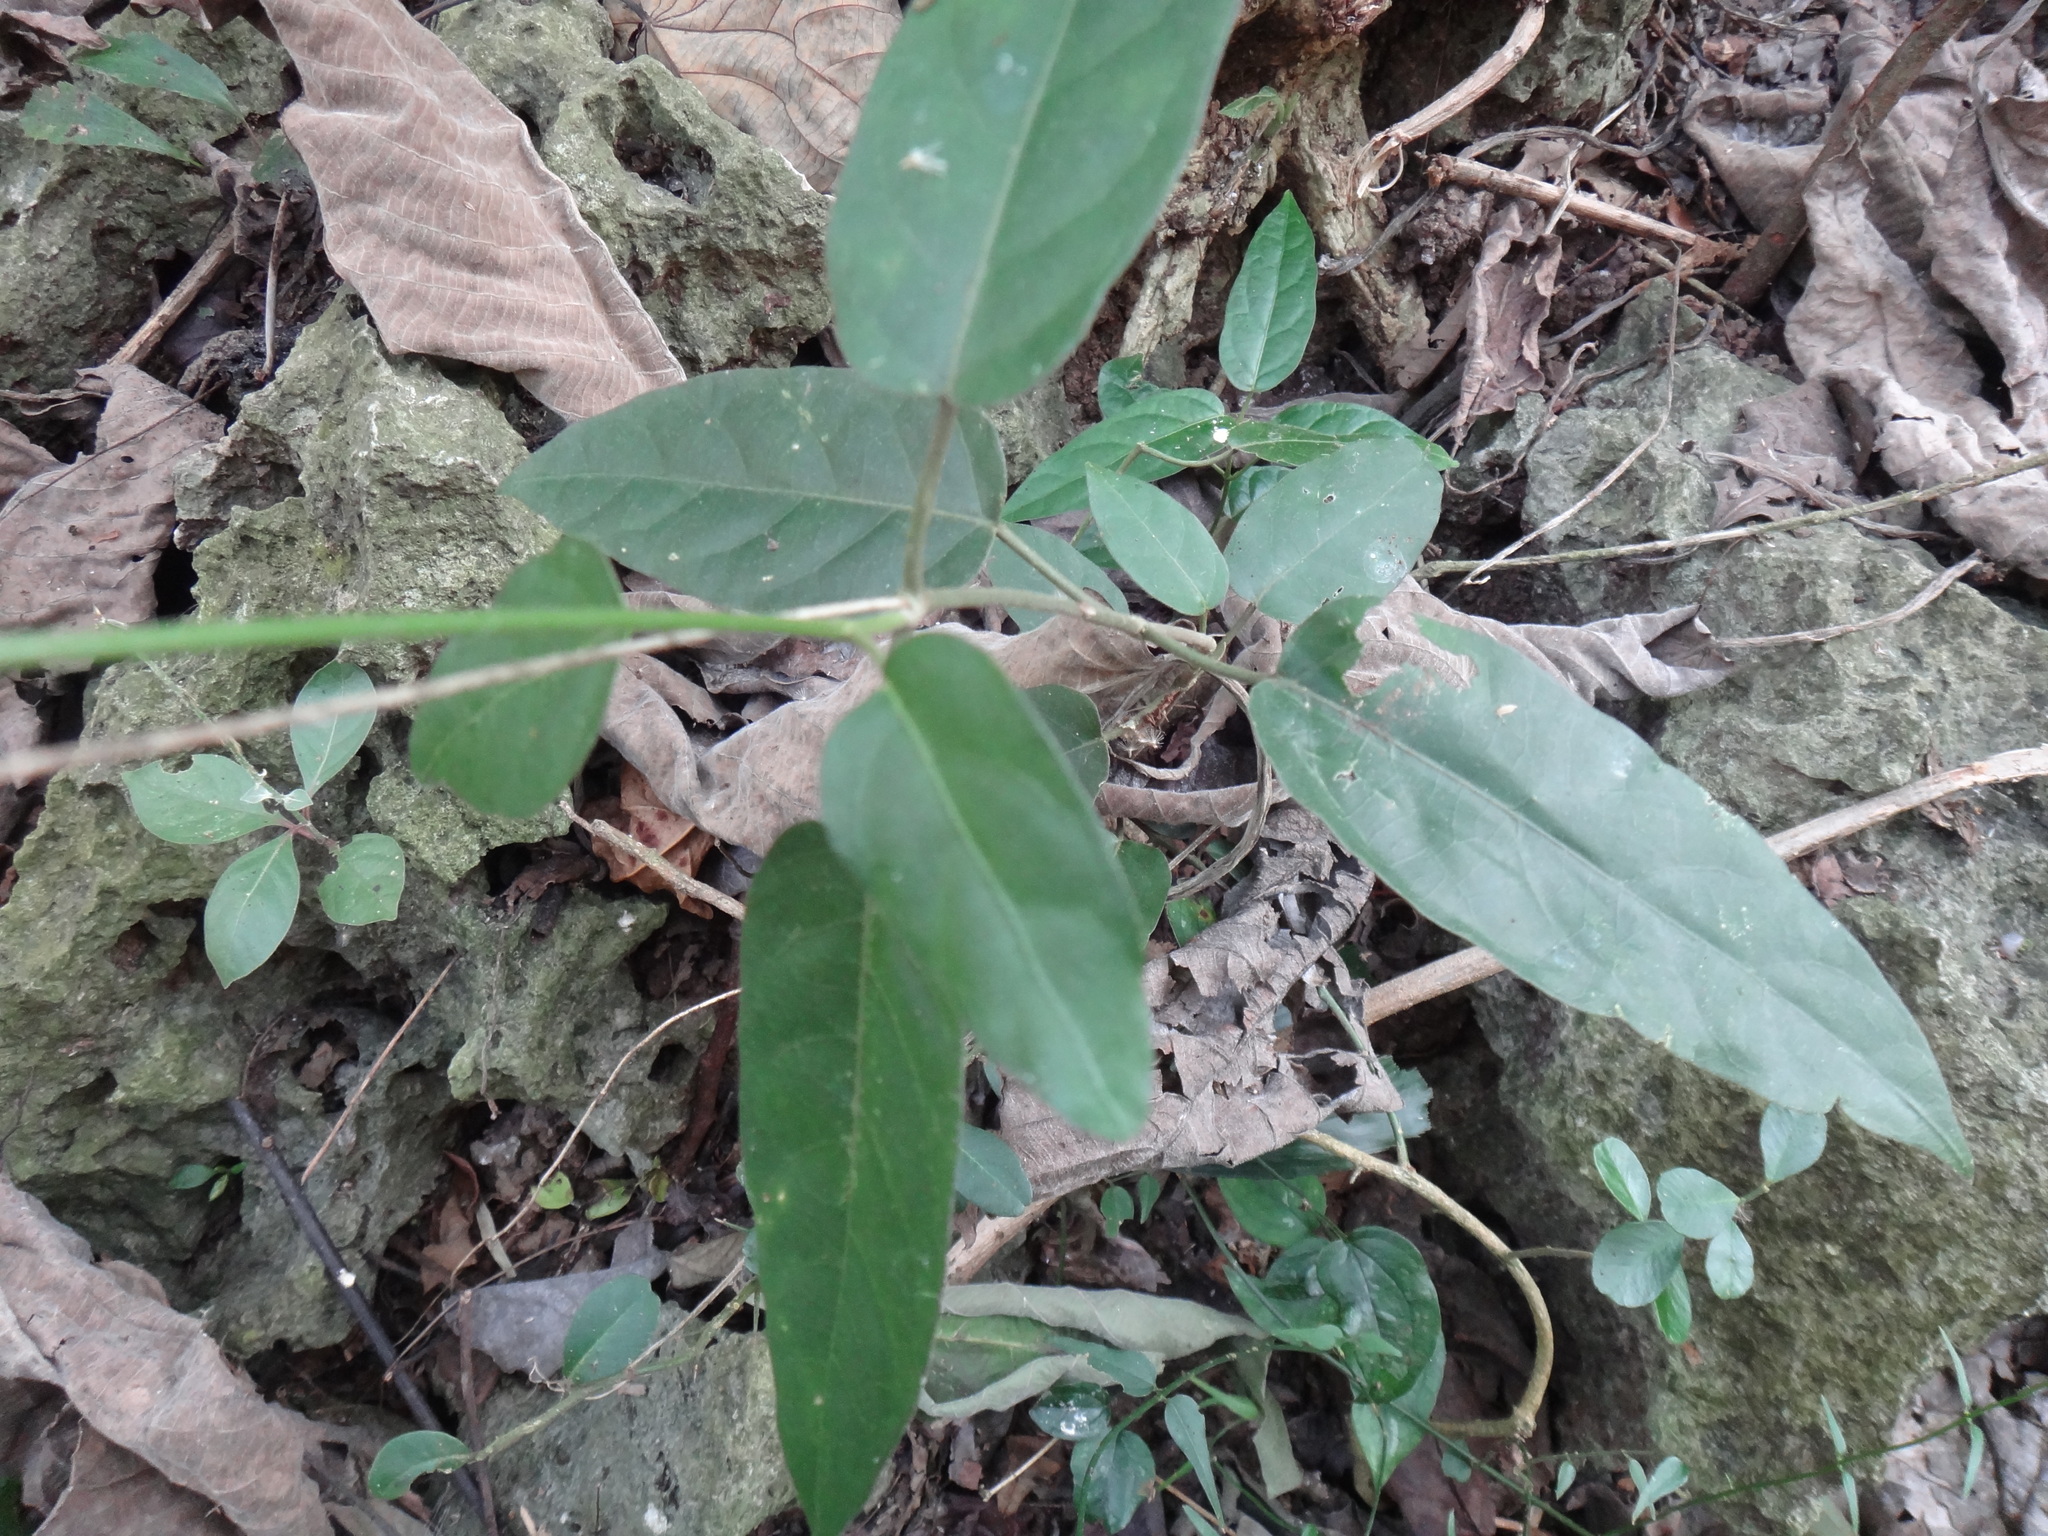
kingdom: Plantae
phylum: Tracheophyta
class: Magnoliopsida
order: Gentianales
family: Apocynaceae
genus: Marsdenia
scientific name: Marsdenia tinctoria
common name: Climbing-indigo
